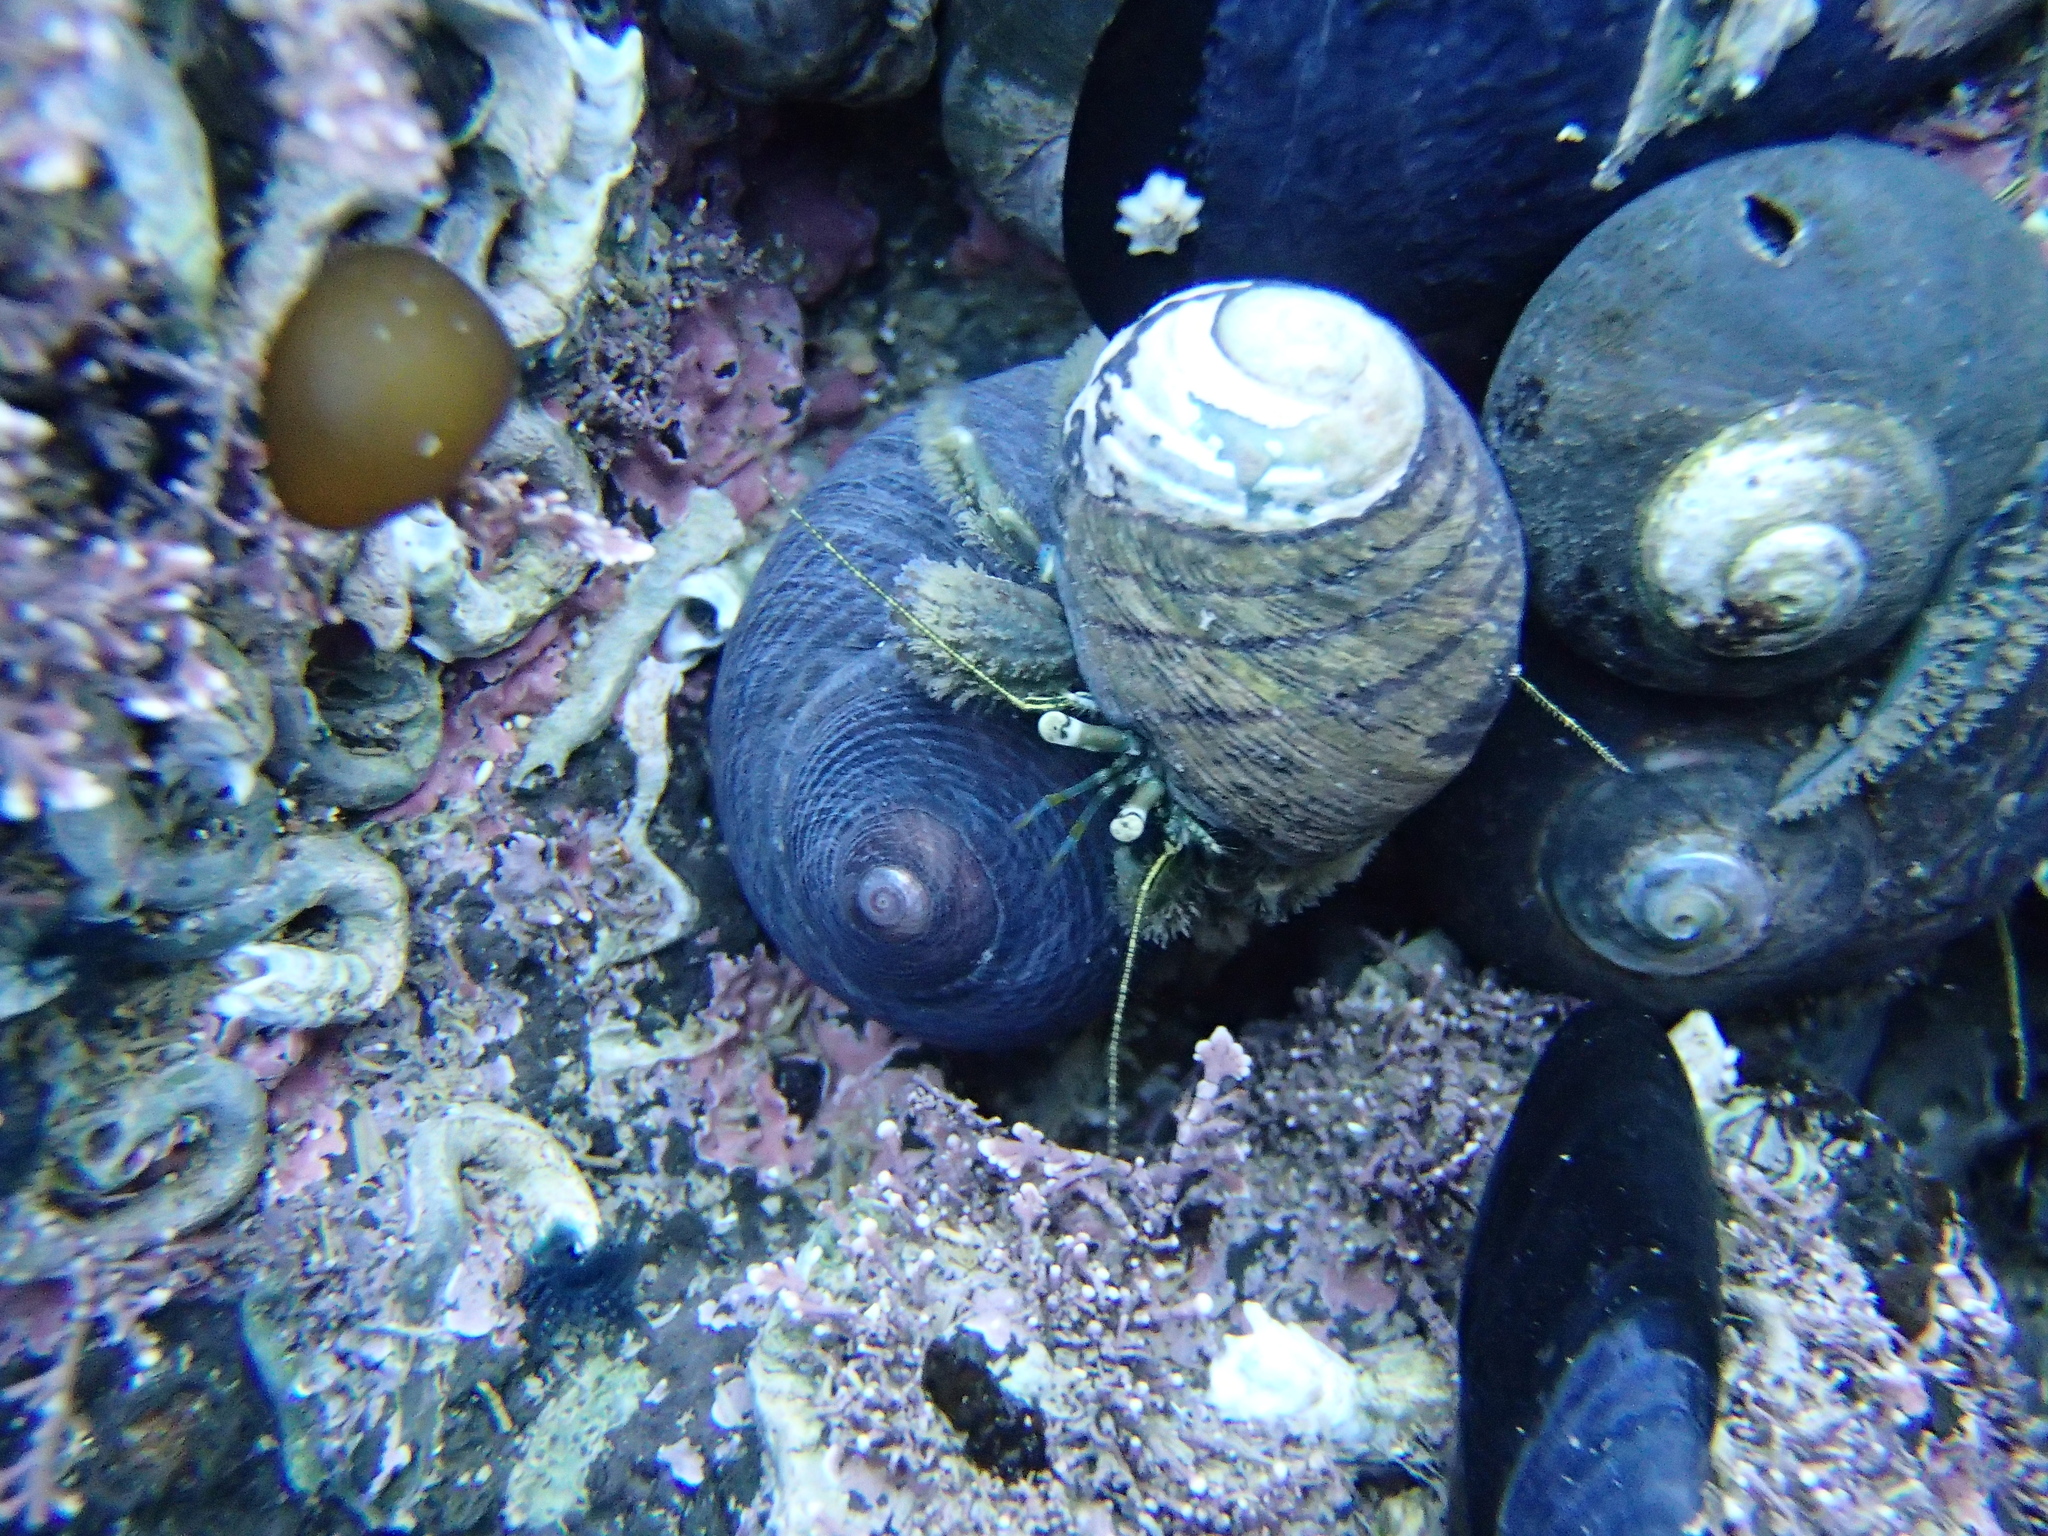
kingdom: Animalia
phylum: Arthropoda
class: Malacostraca
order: Decapoda
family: Paguridae
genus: Pagurus
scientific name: Pagurus novizealandiae
